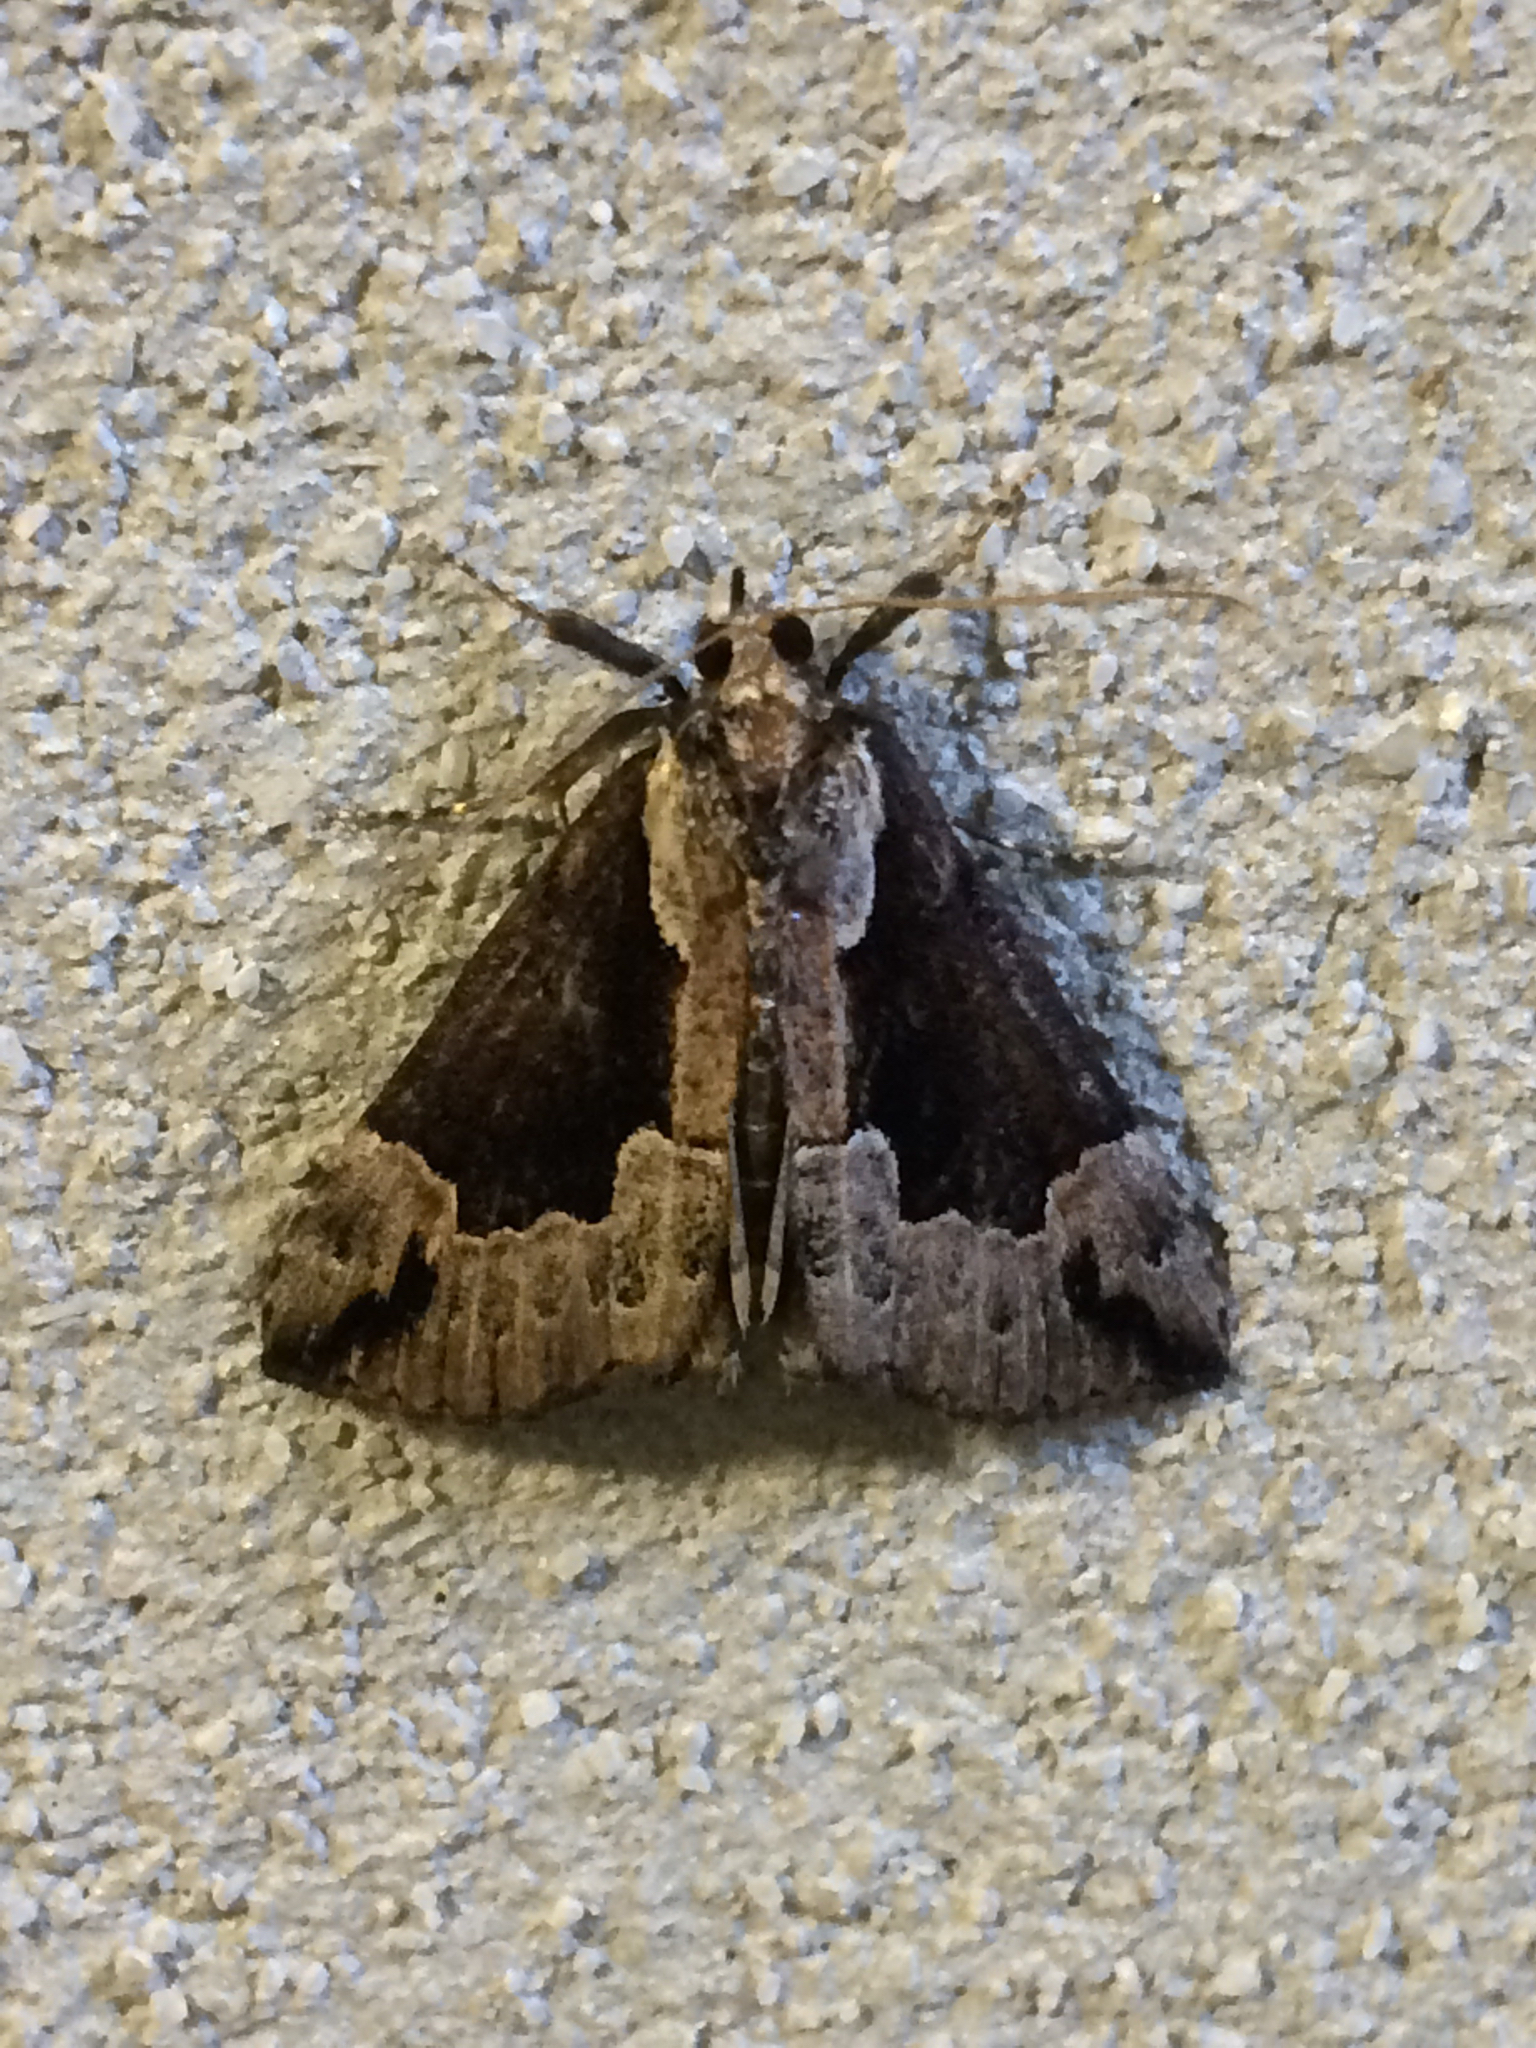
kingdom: Animalia
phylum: Arthropoda
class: Insecta
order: Lepidoptera
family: Erebidae
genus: Hypena
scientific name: Hypena baltimoralis
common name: Baltimore snout
